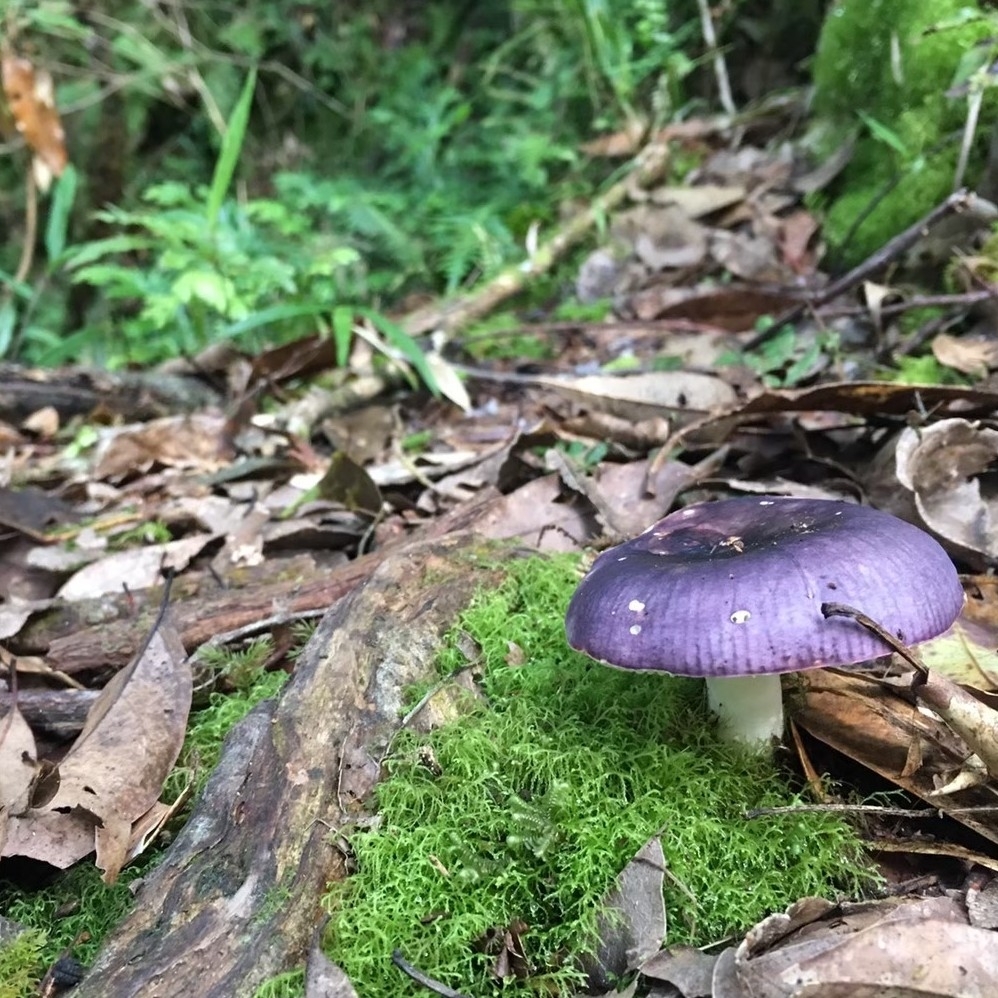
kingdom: Fungi
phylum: Basidiomycota
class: Agaricomycetes
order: Agaricales
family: Cortinariaceae
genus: Cortinarius
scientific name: Cortinarius iodes
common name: Viscid violet cort
